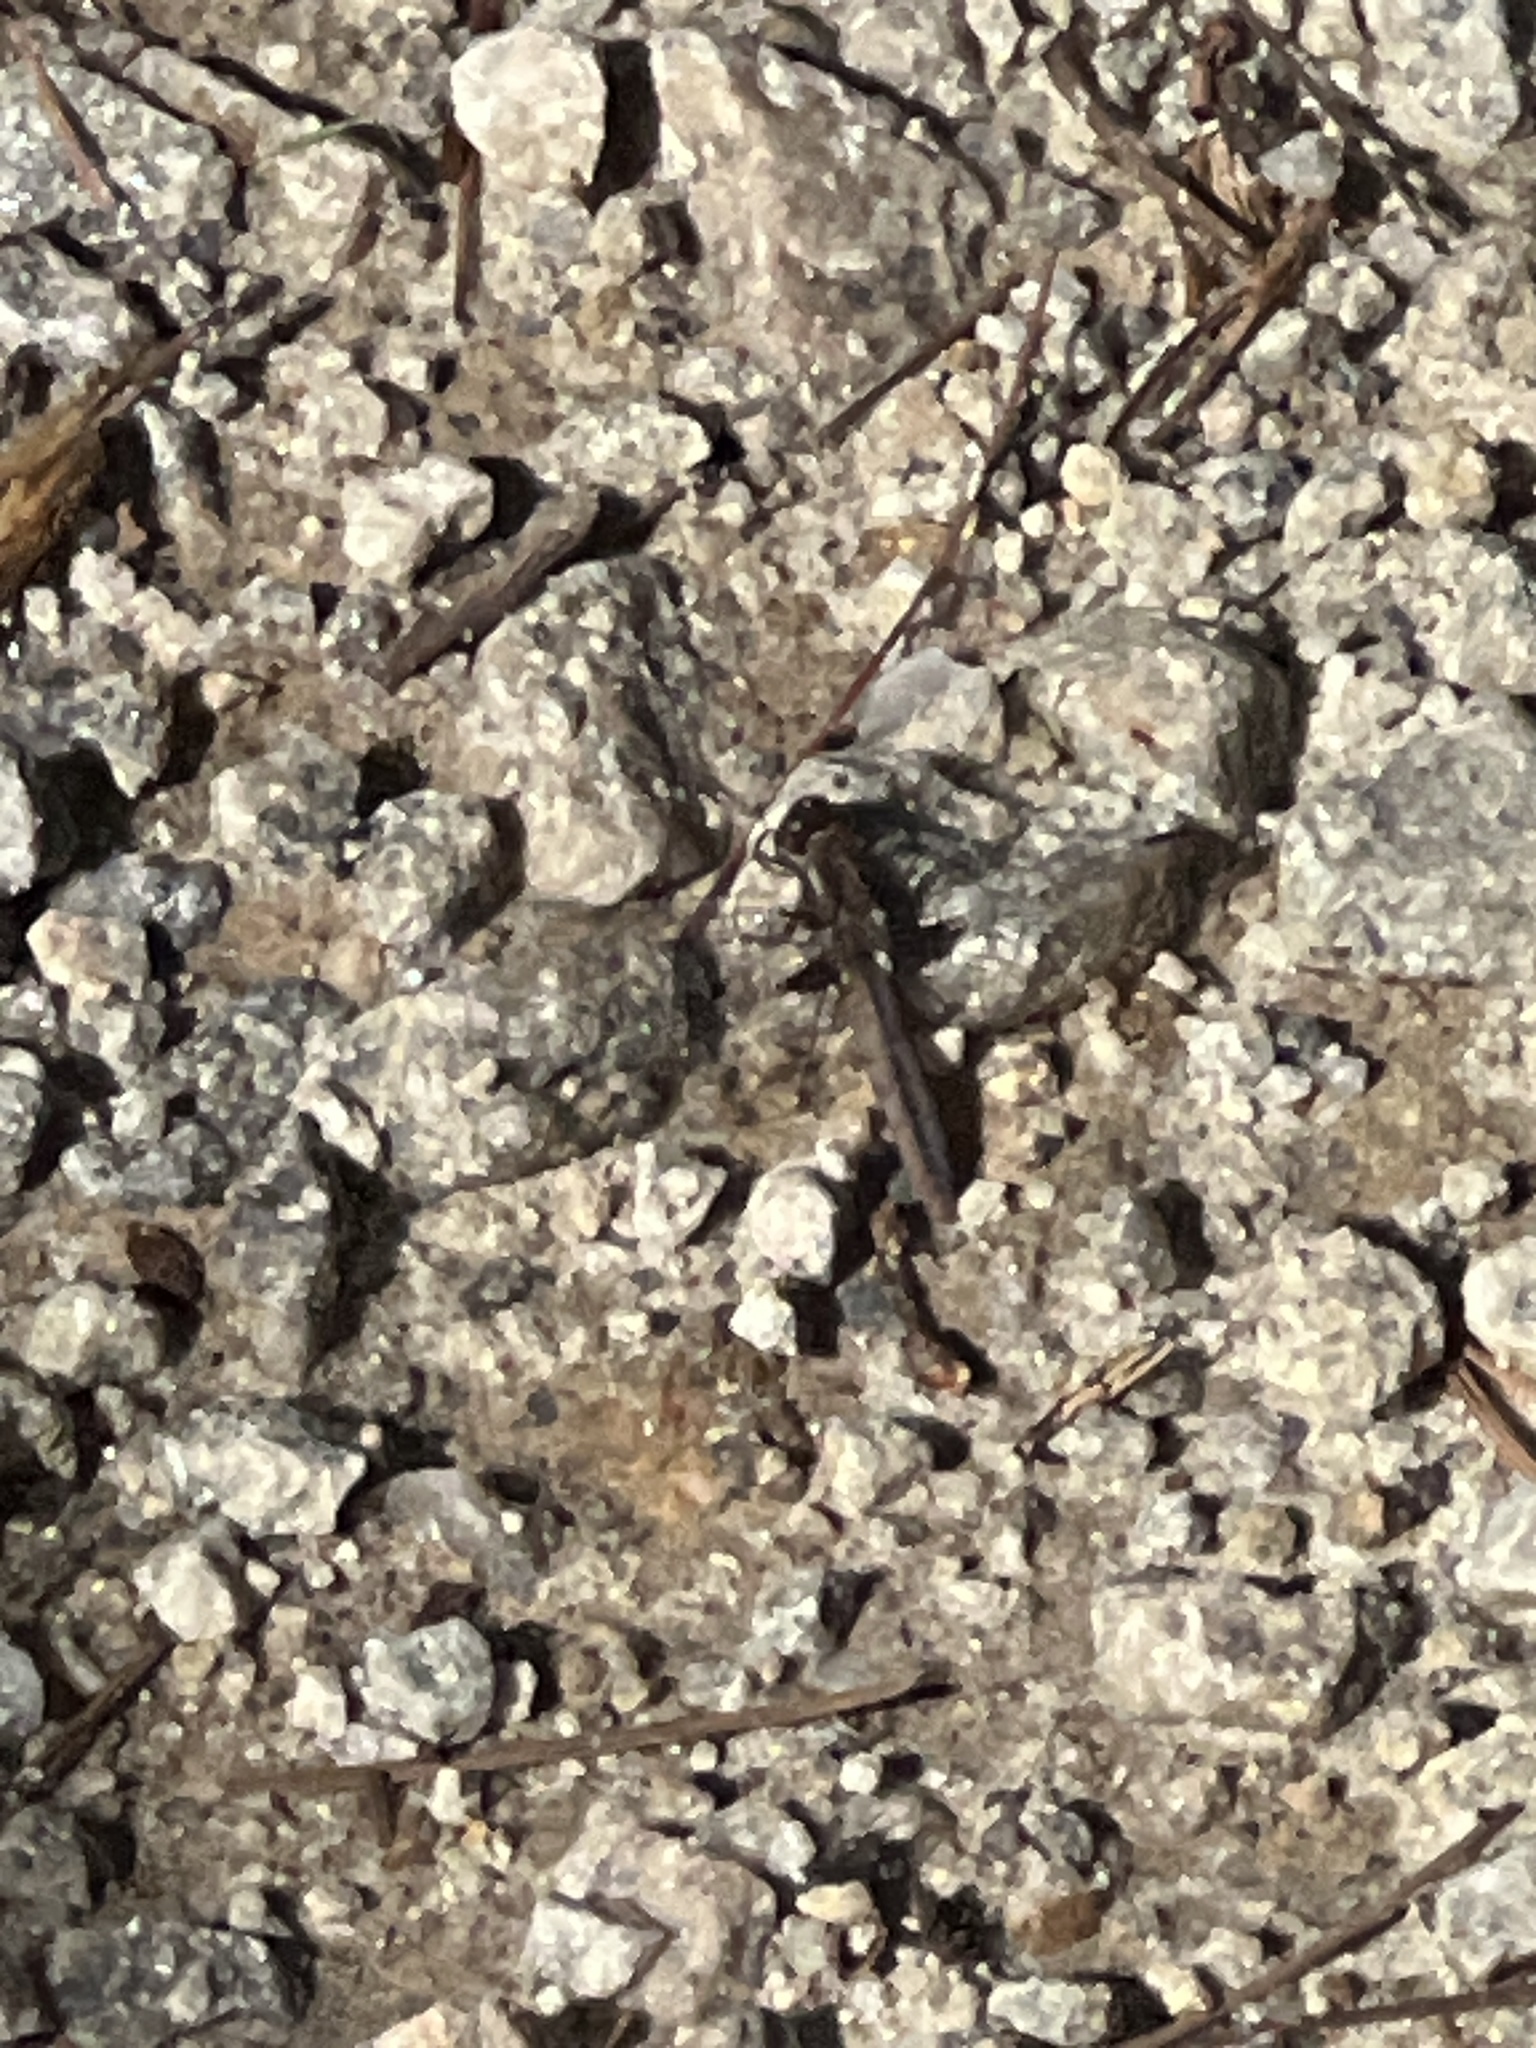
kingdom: Animalia
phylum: Arthropoda
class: Insecta
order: Odonata
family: Libellulidae
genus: Ladona
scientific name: Ladona deplanata
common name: Blue corporal
